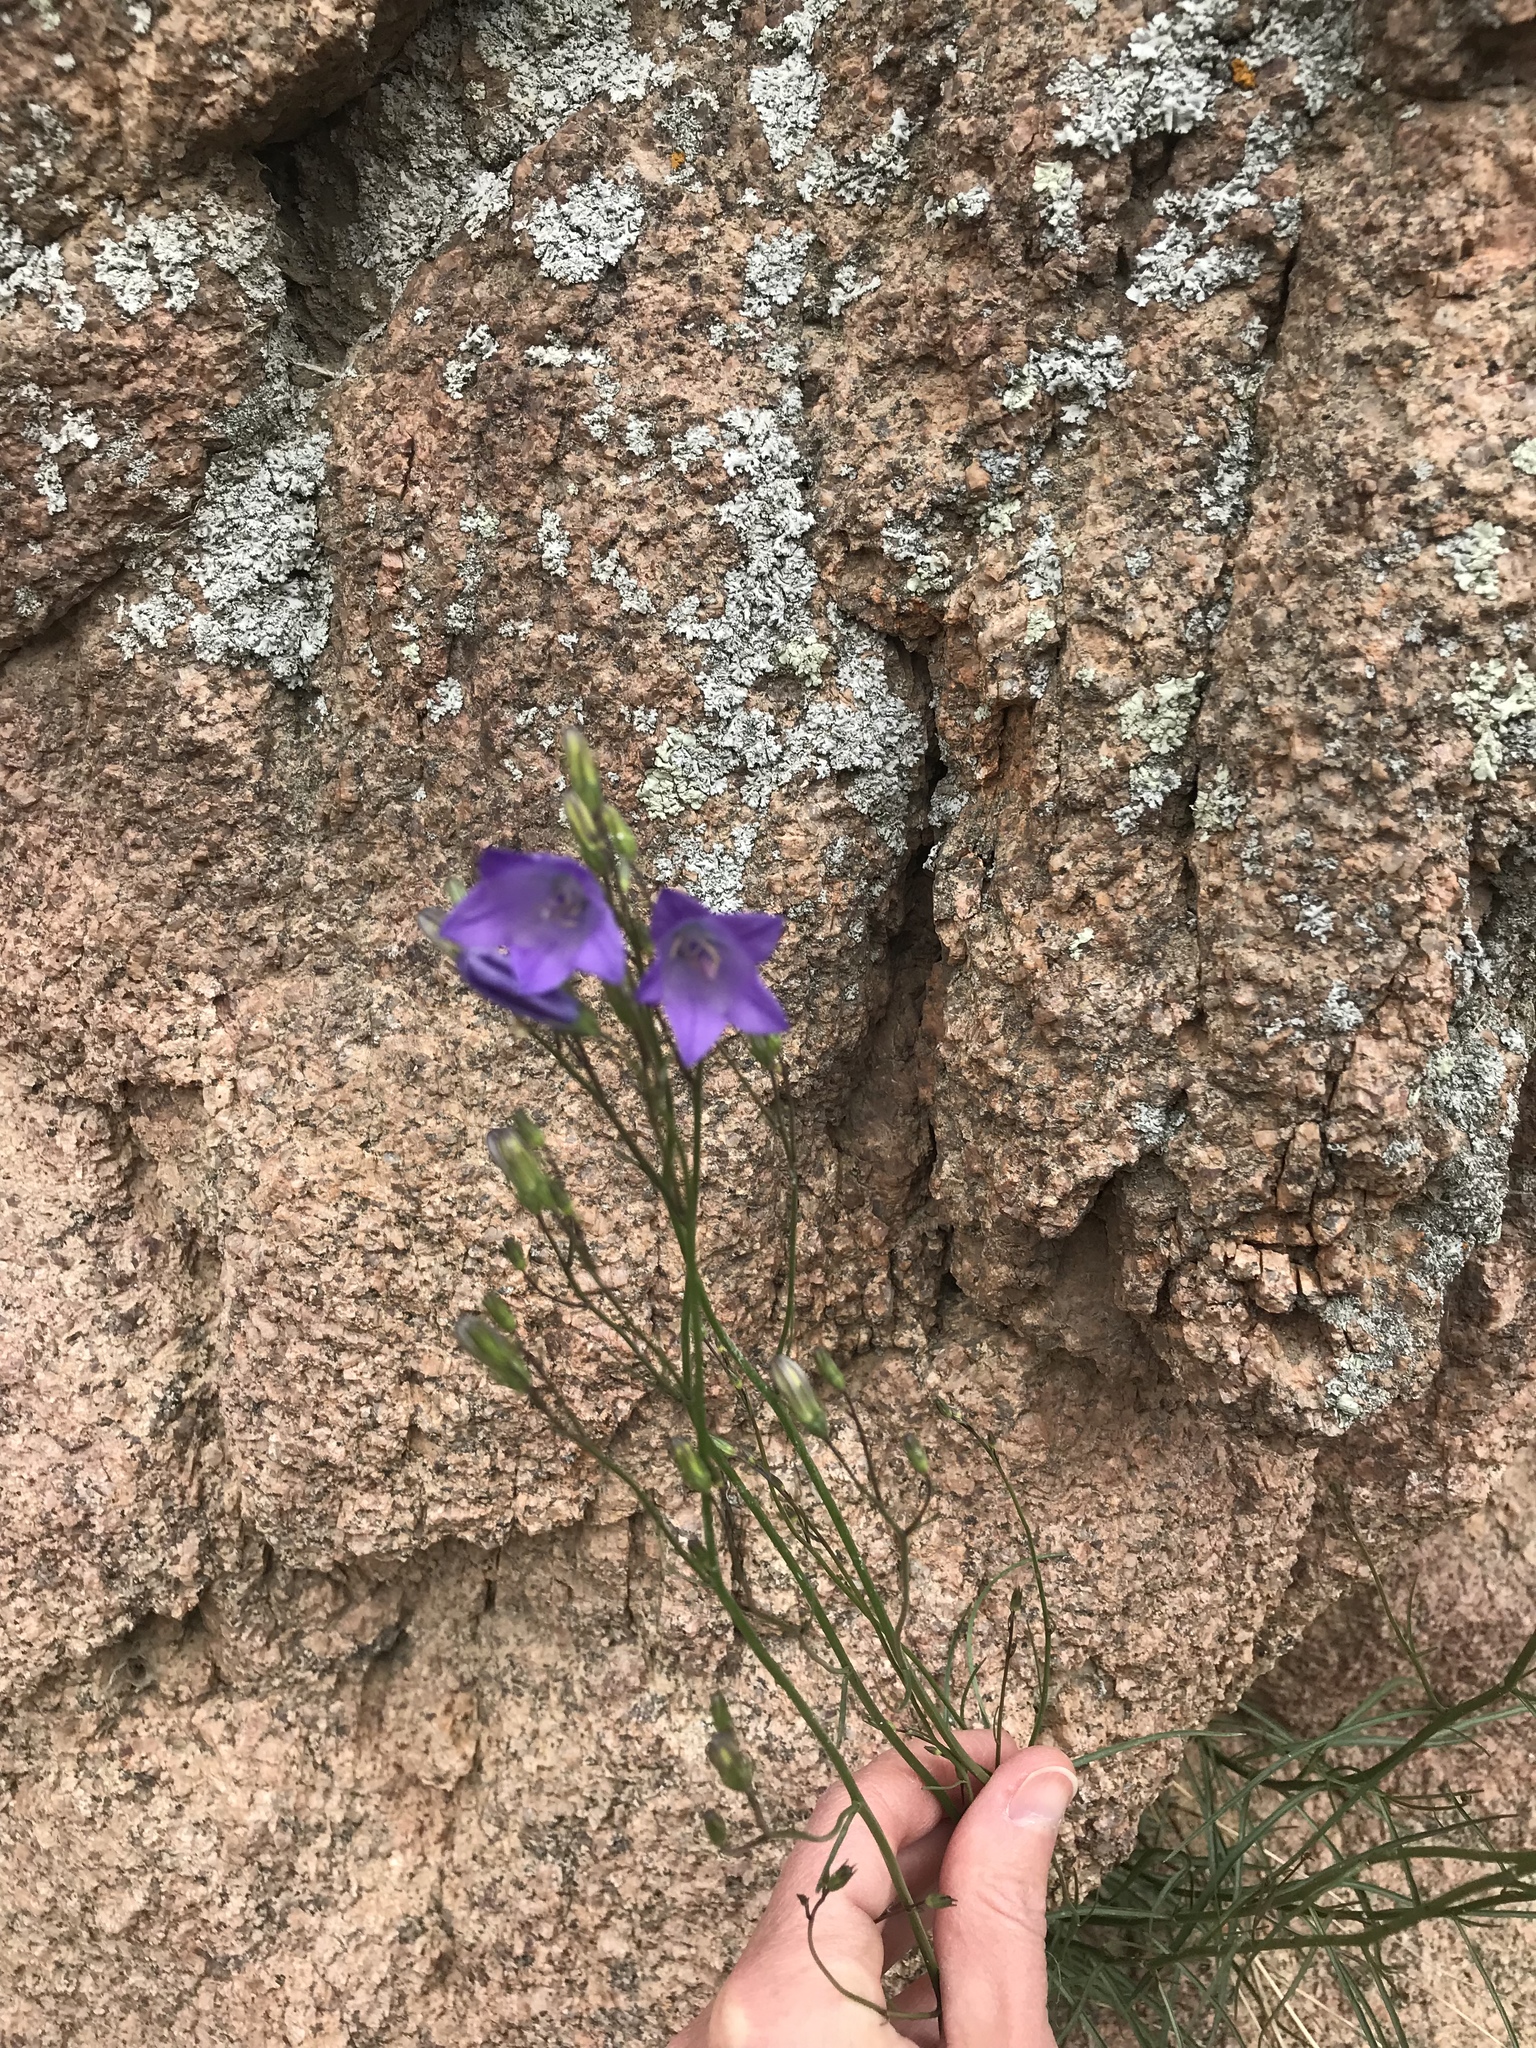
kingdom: Plantae
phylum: Tracheophyta
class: Magnoliopsida
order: Asterales
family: Campanulaceae
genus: Campanula
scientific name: Campanula petiolata
